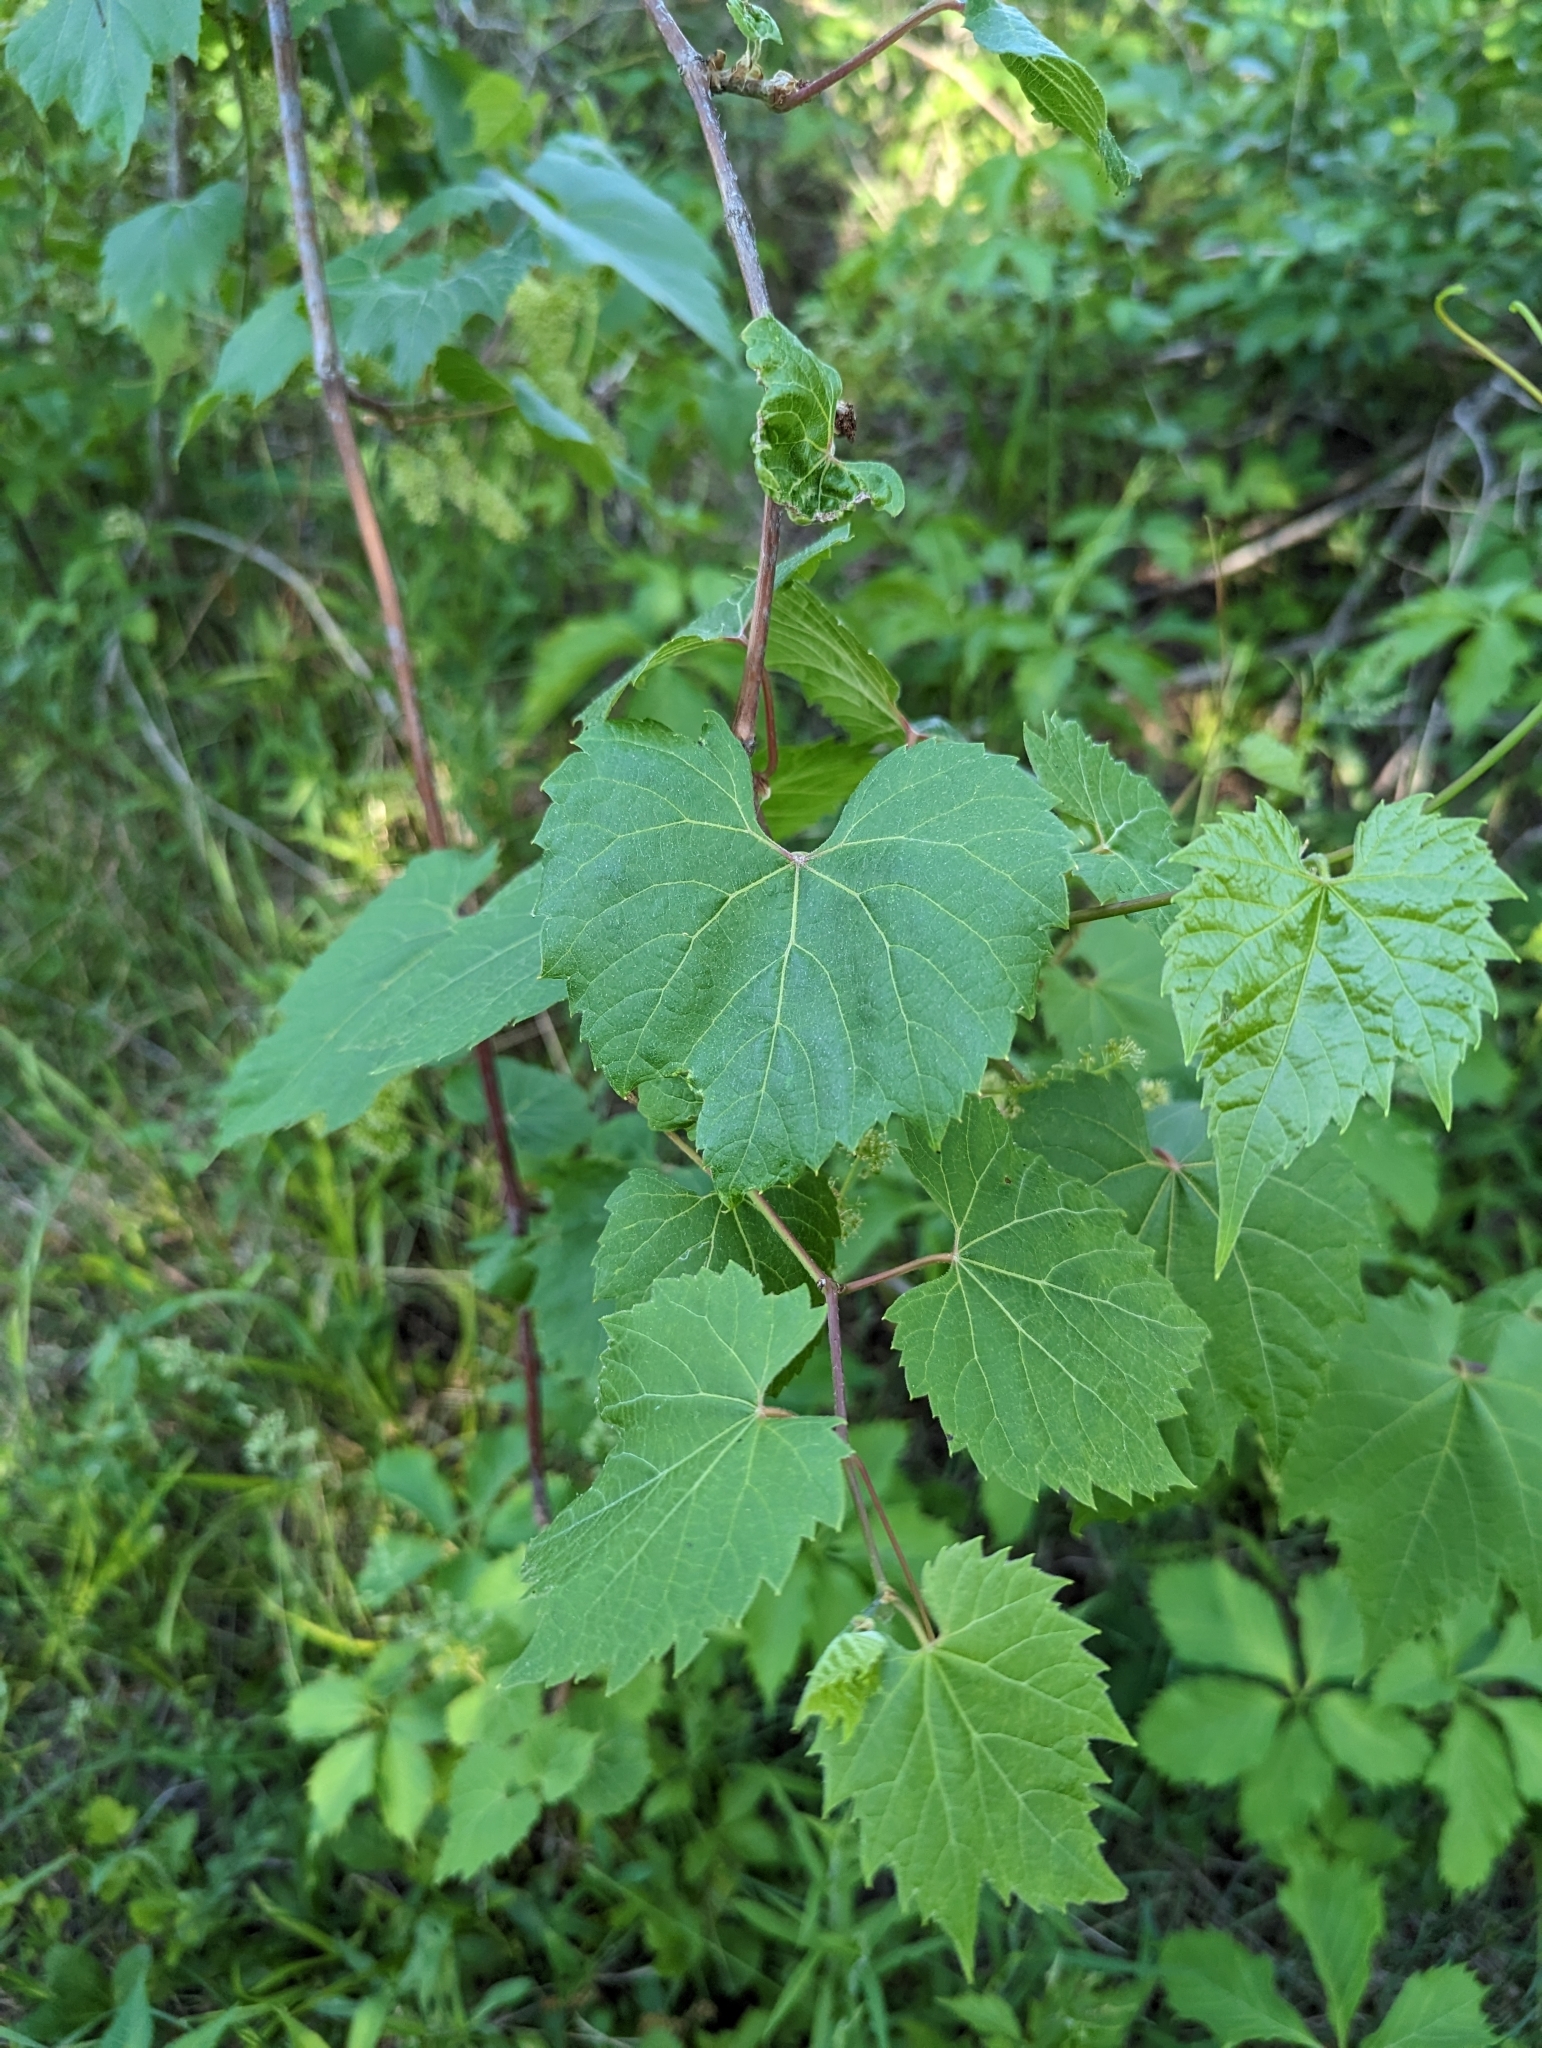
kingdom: Plantae
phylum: Tracheophyta
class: Magnoliopsida
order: Vitales
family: Vitaceae
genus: Vitis
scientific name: Vitis riparia
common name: Frost grape
